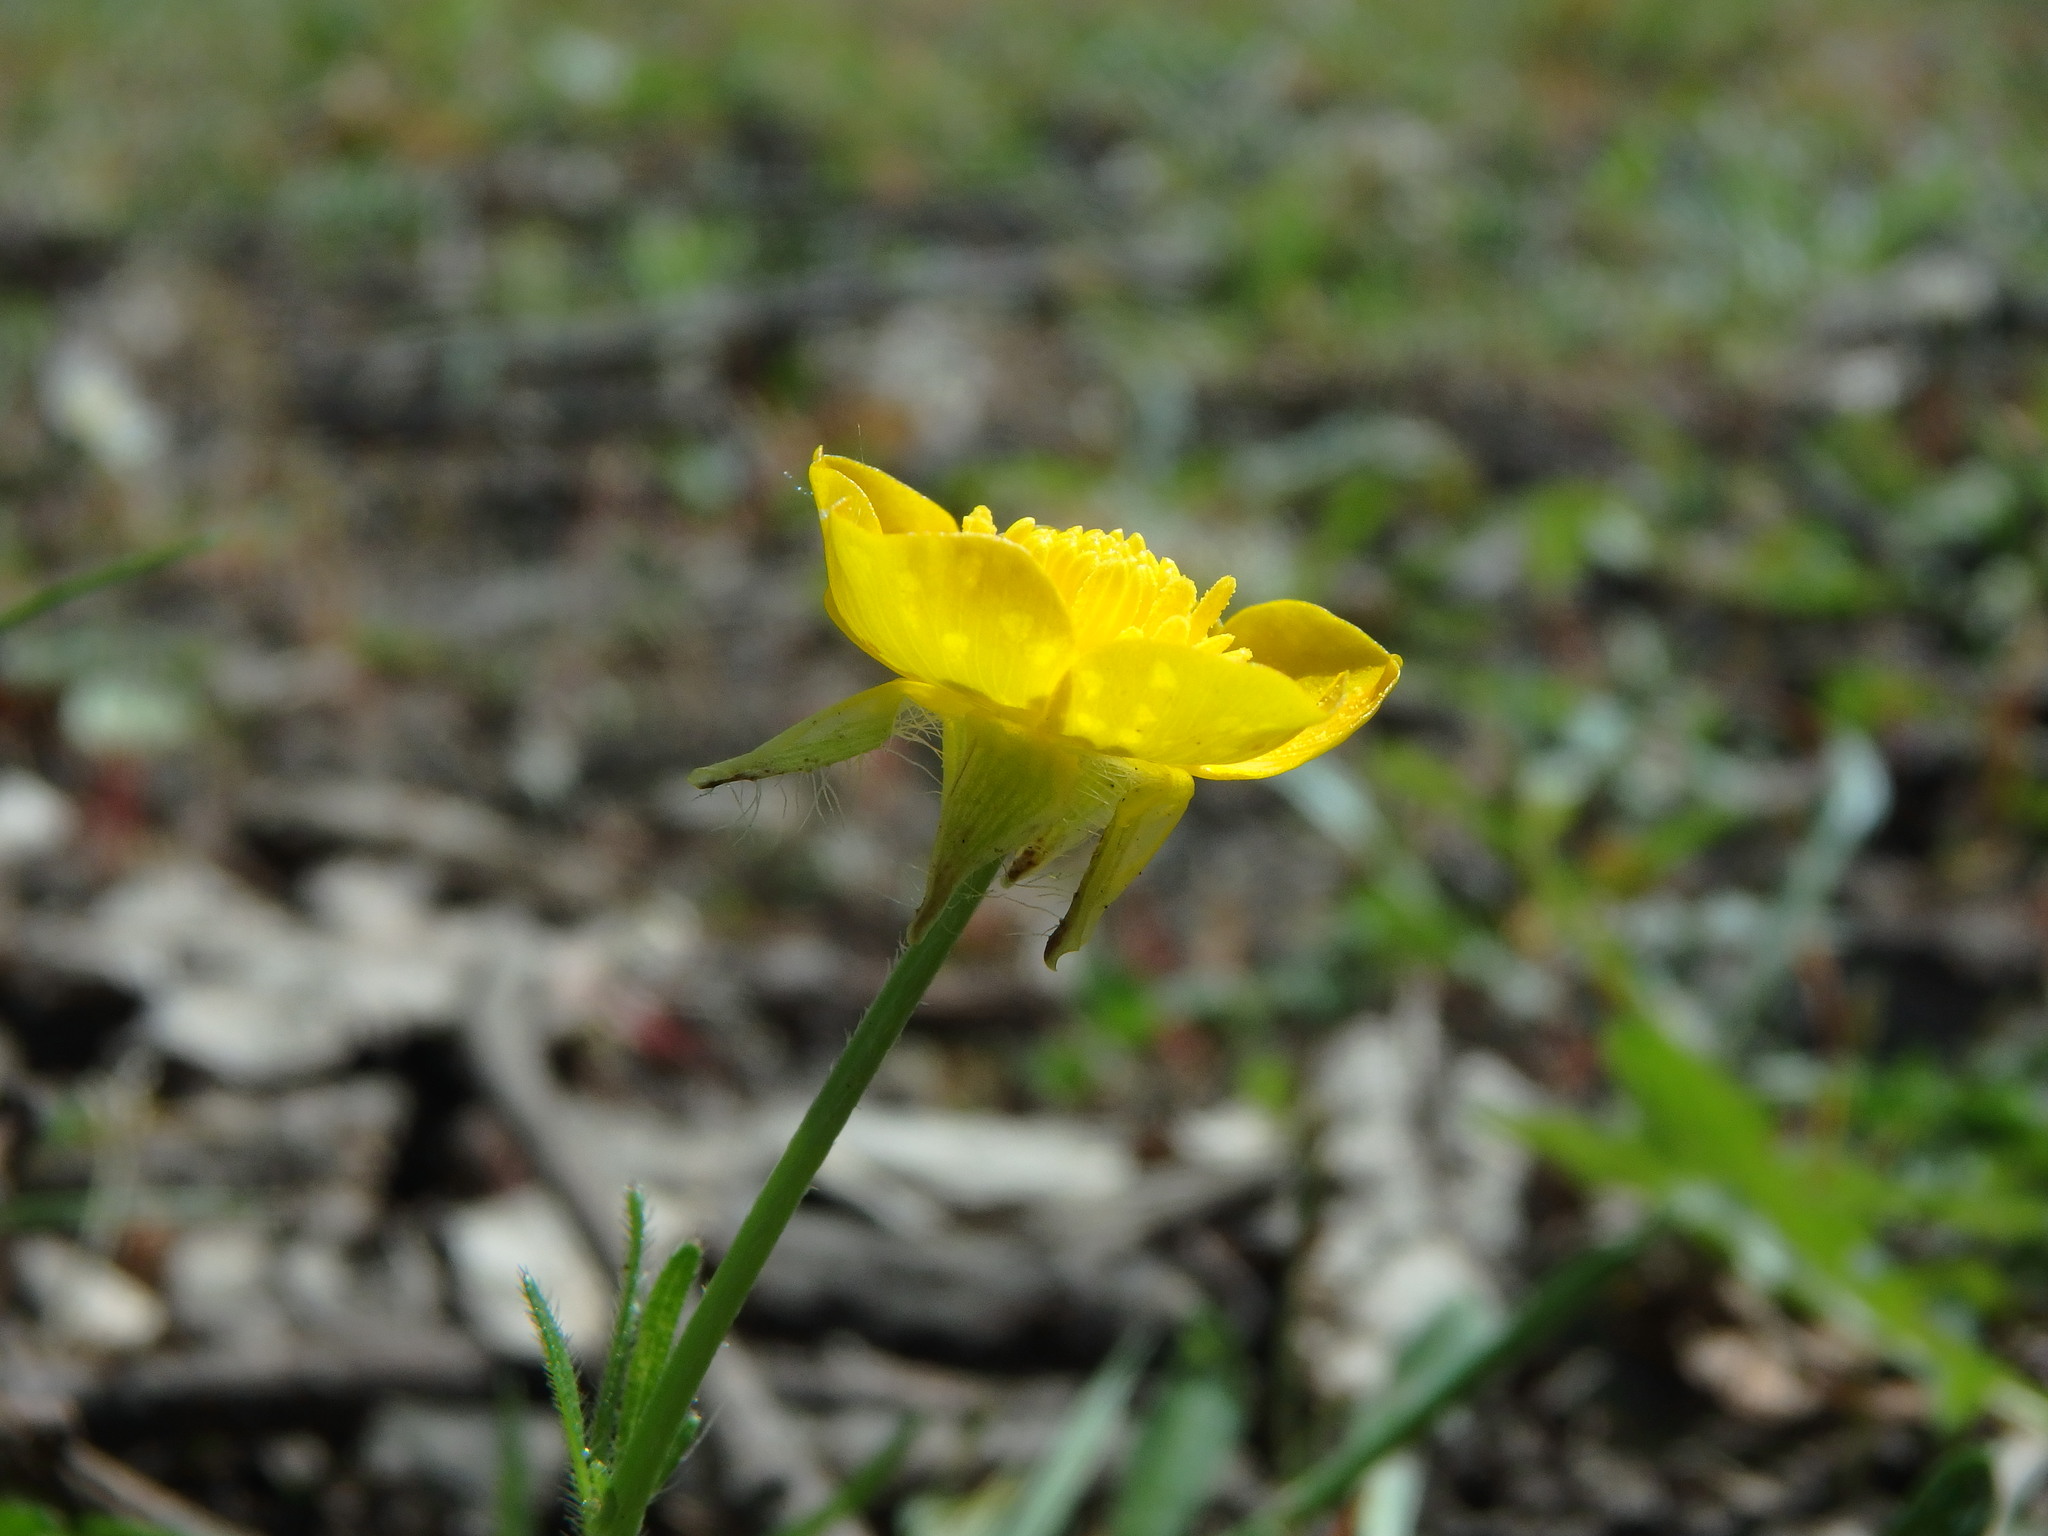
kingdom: Plantae
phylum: Tracheophyta
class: Magnoliopsida
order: Ranunculales
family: Ranunculaceae
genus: Ranunculus
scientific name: Ranunculus bulbosus
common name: Bulbous buttercup
